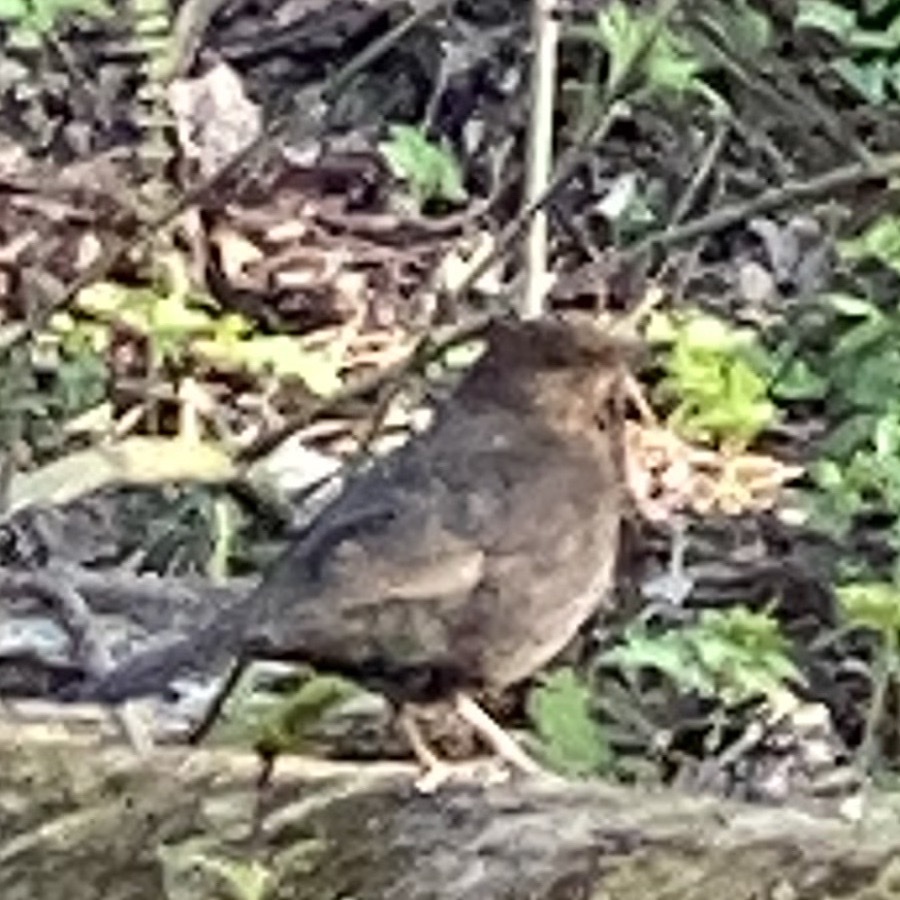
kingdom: Animalia
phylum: Chordata
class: Aves
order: Passeriformes
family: Turdidae
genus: Turdus
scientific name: Turdus merula
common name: Common blackbird
